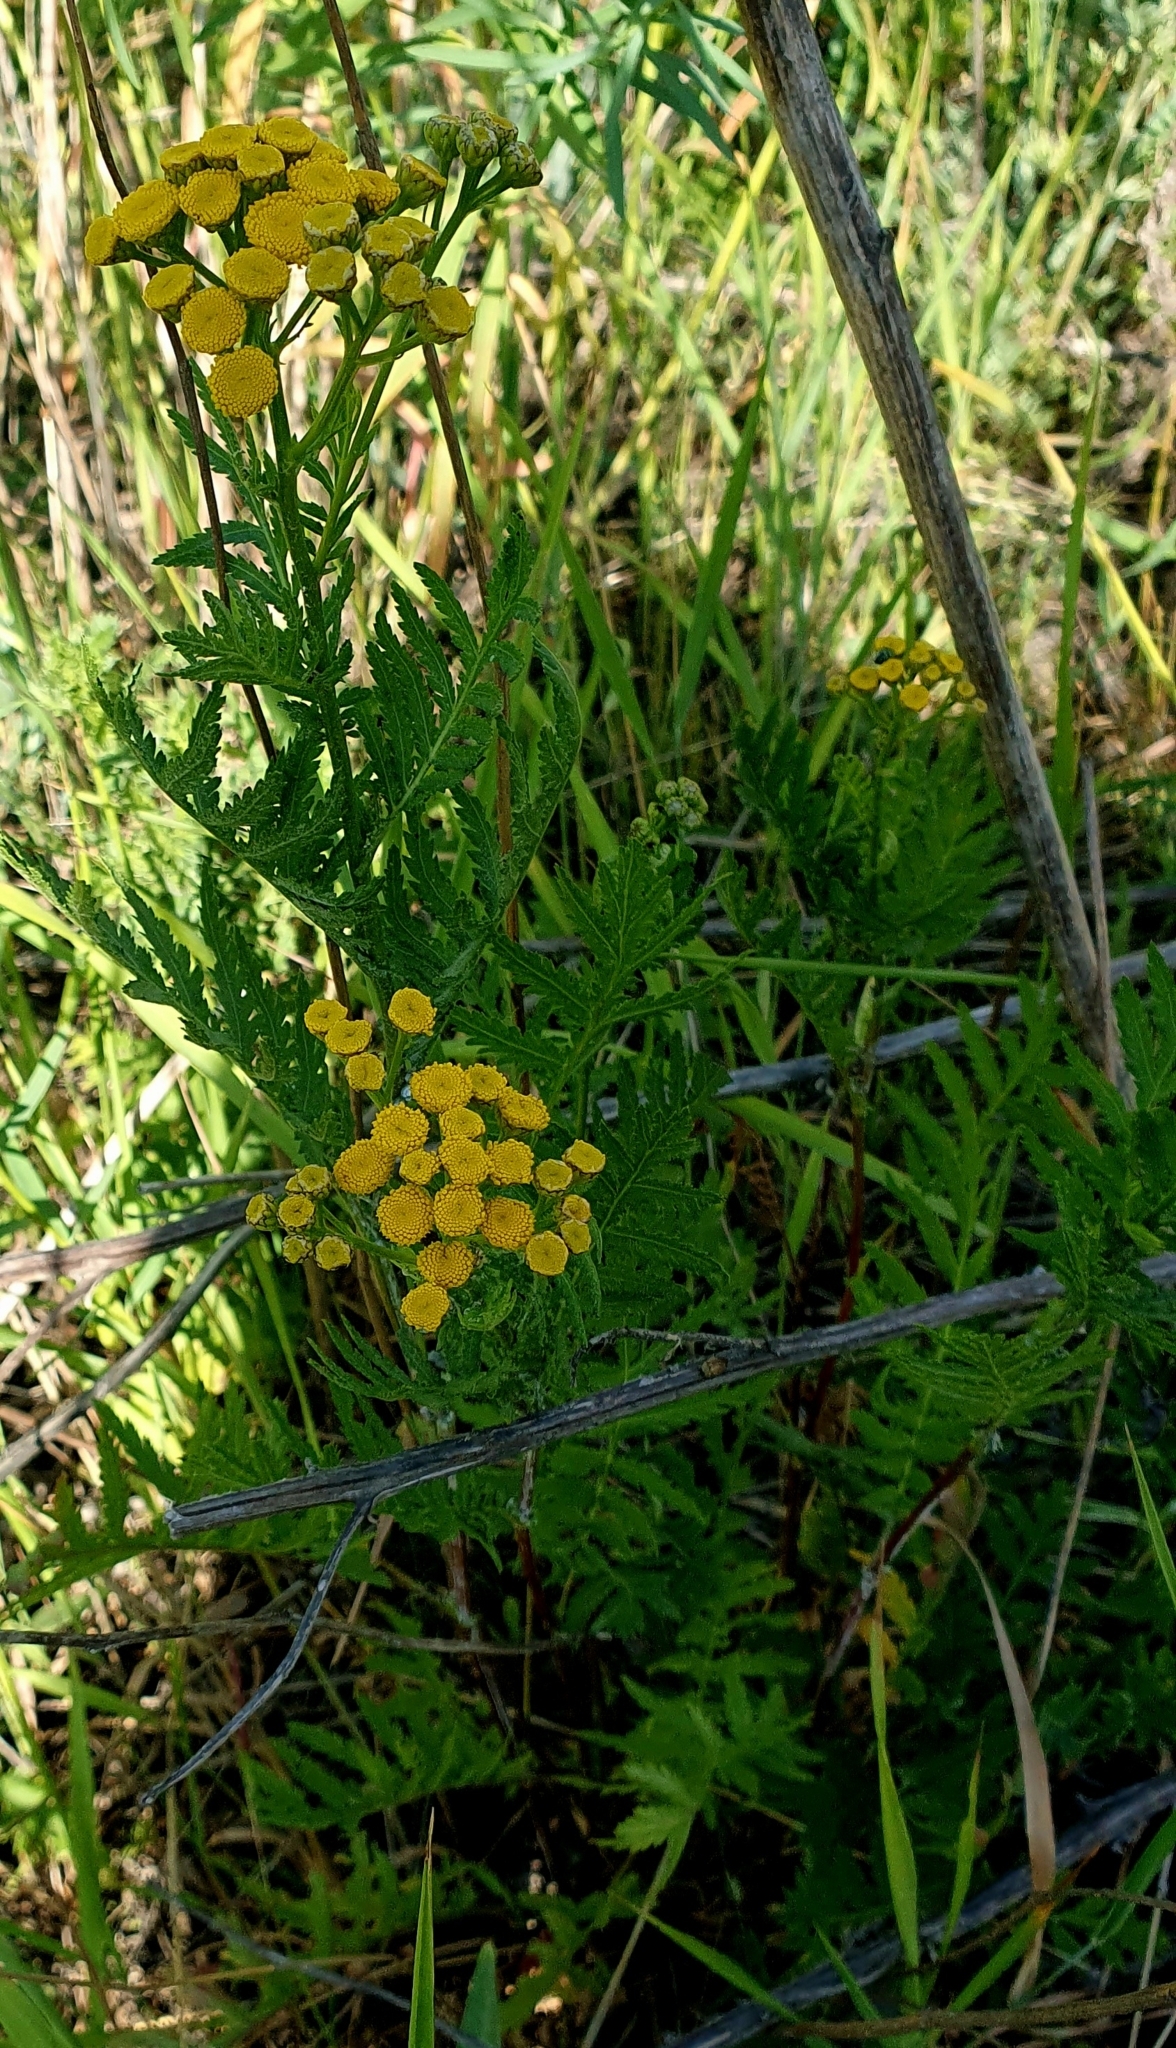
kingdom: Plantae
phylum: Tracheophyta
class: Magnoliopsida
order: Asterales
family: Asteraceae
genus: Tanacetum
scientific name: Tanacetum vulgare
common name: Common tansy
